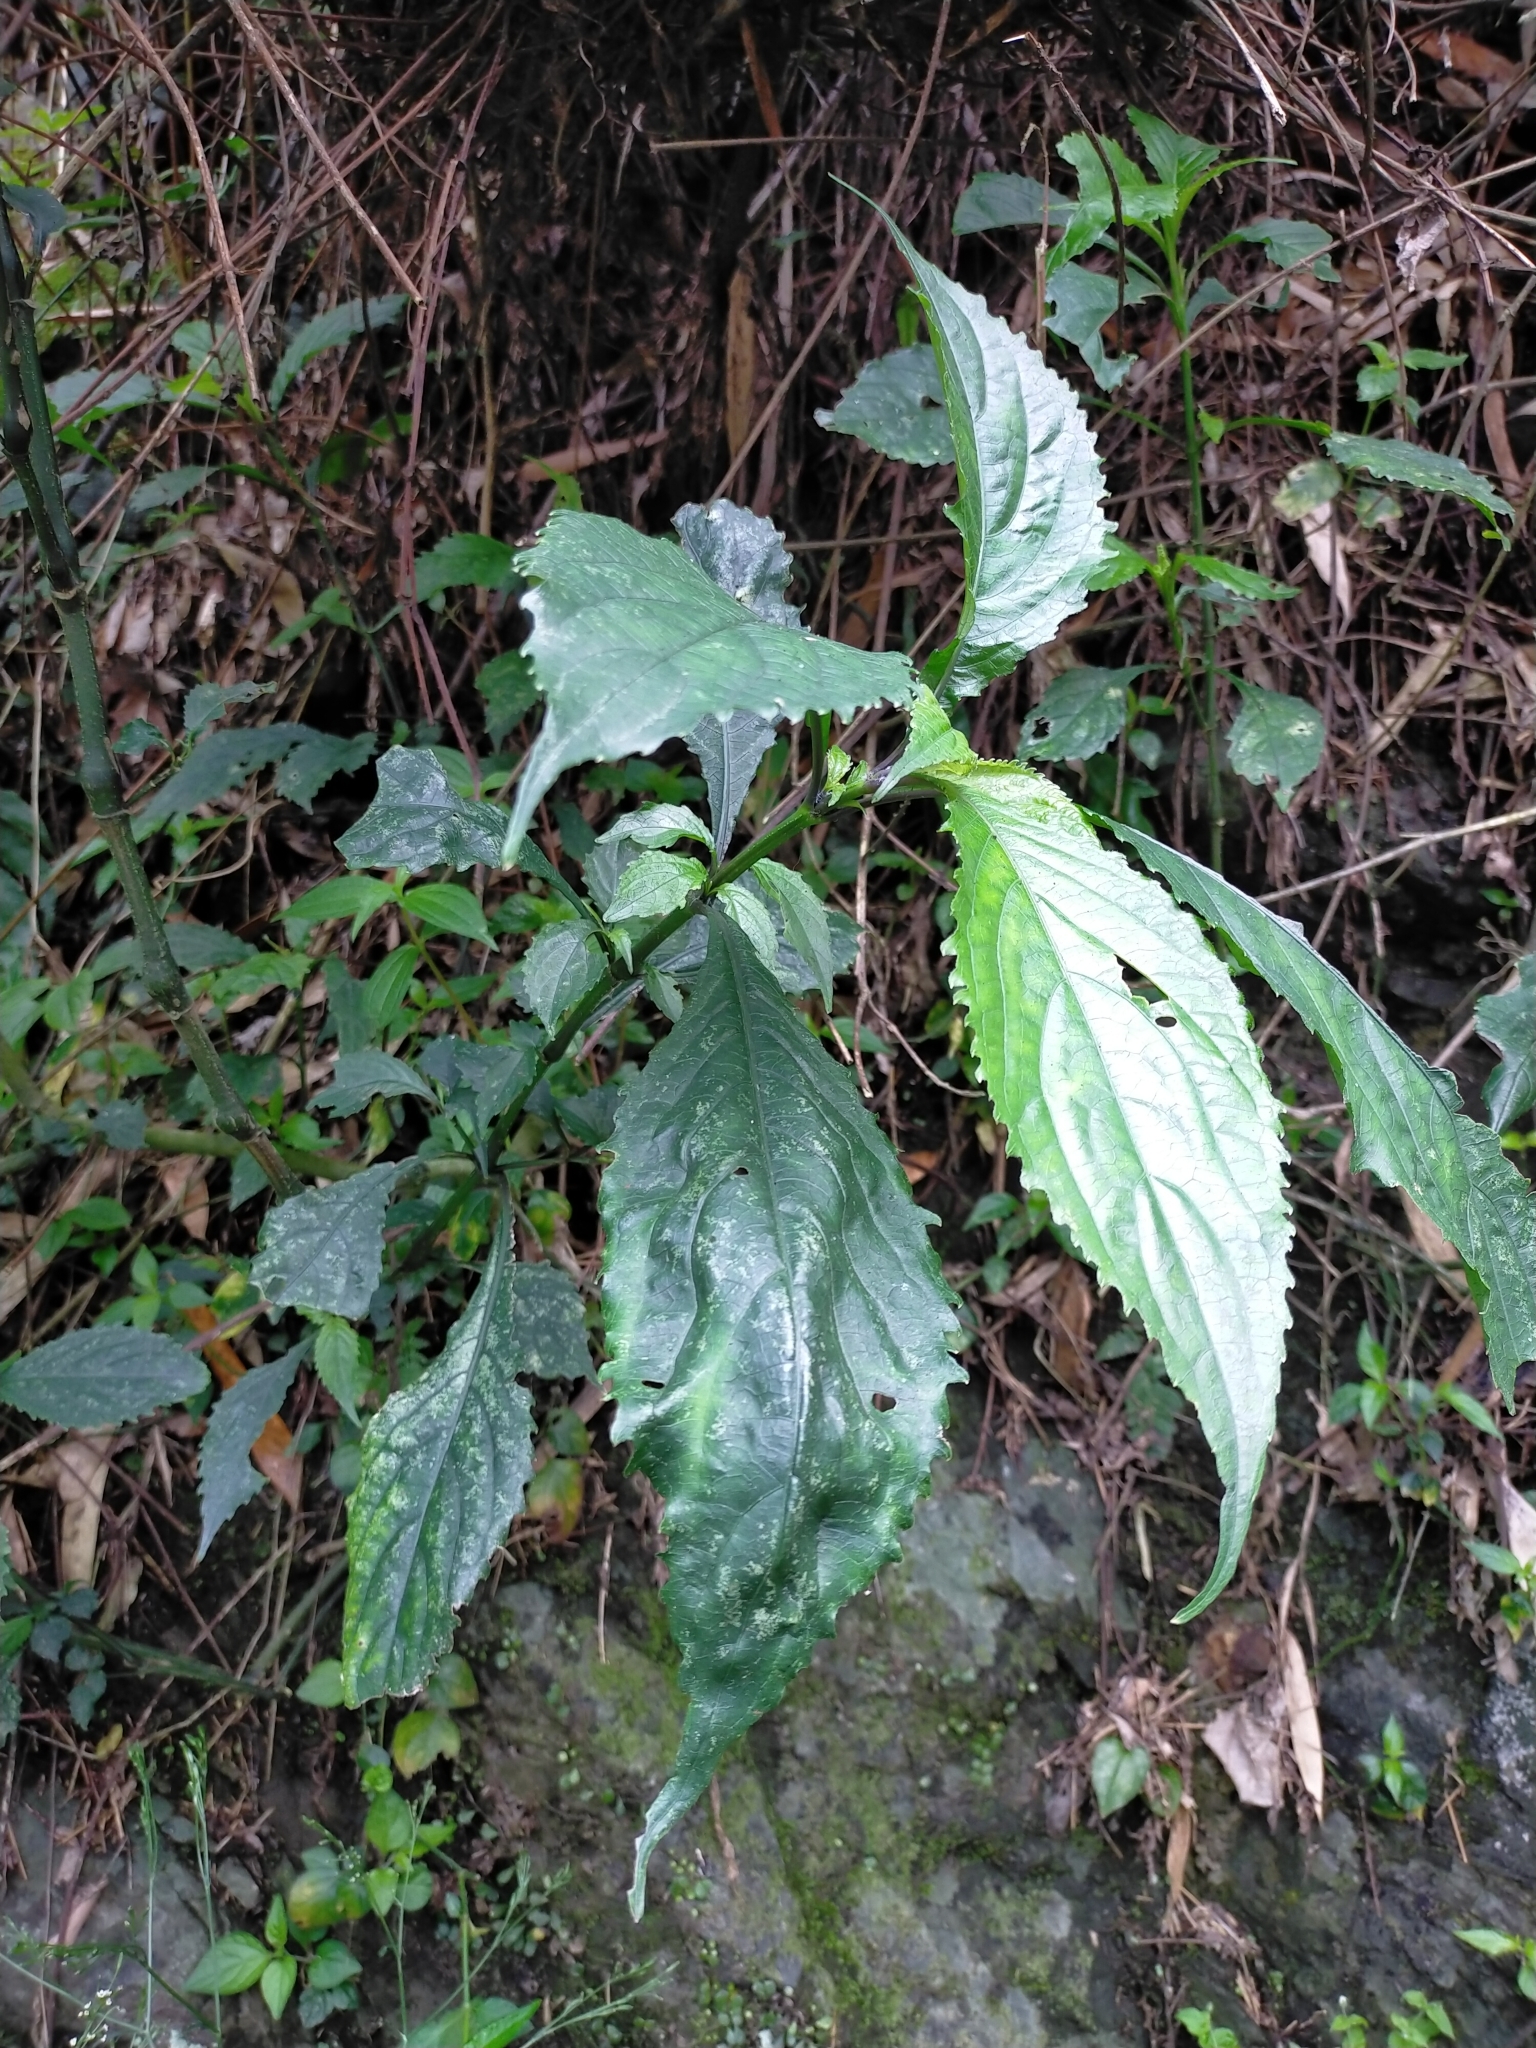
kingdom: Plantae
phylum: Tracheophyta
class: Magnoliopsida
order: Lamiales
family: Acanthaceae
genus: Strobilanthes
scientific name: Strobilanthes flexicaulis
